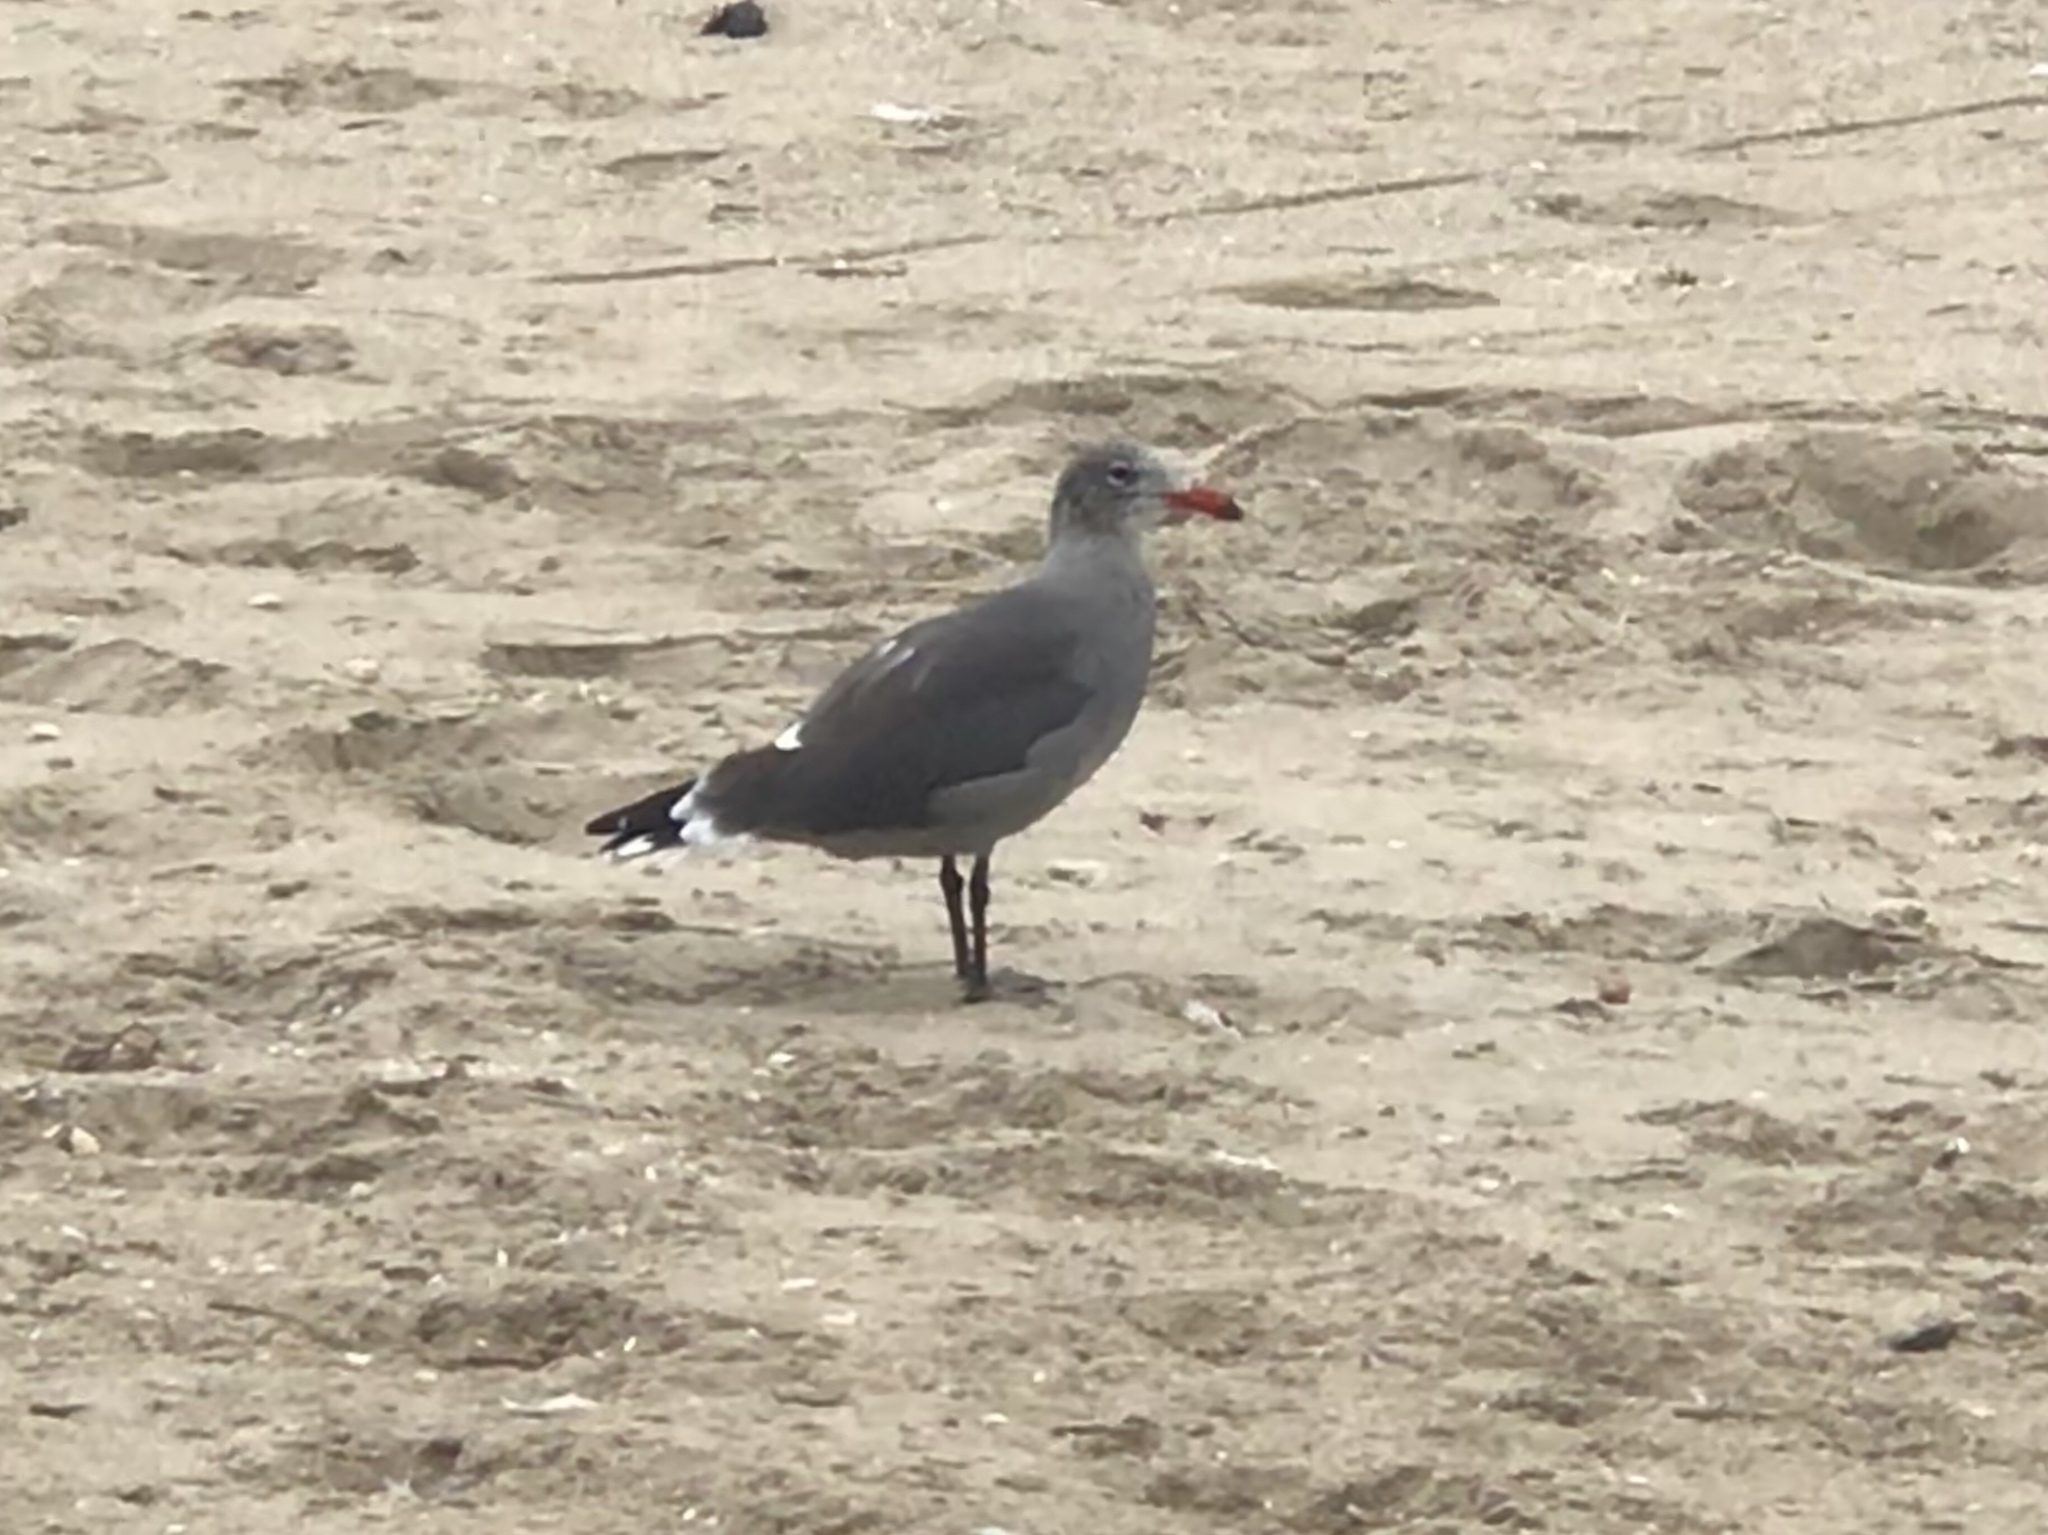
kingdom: Animalia
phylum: Chordata
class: Aves
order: Charadriiformes
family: Laridae
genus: Larus
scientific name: Larus heermanni
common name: Heermann's gull
